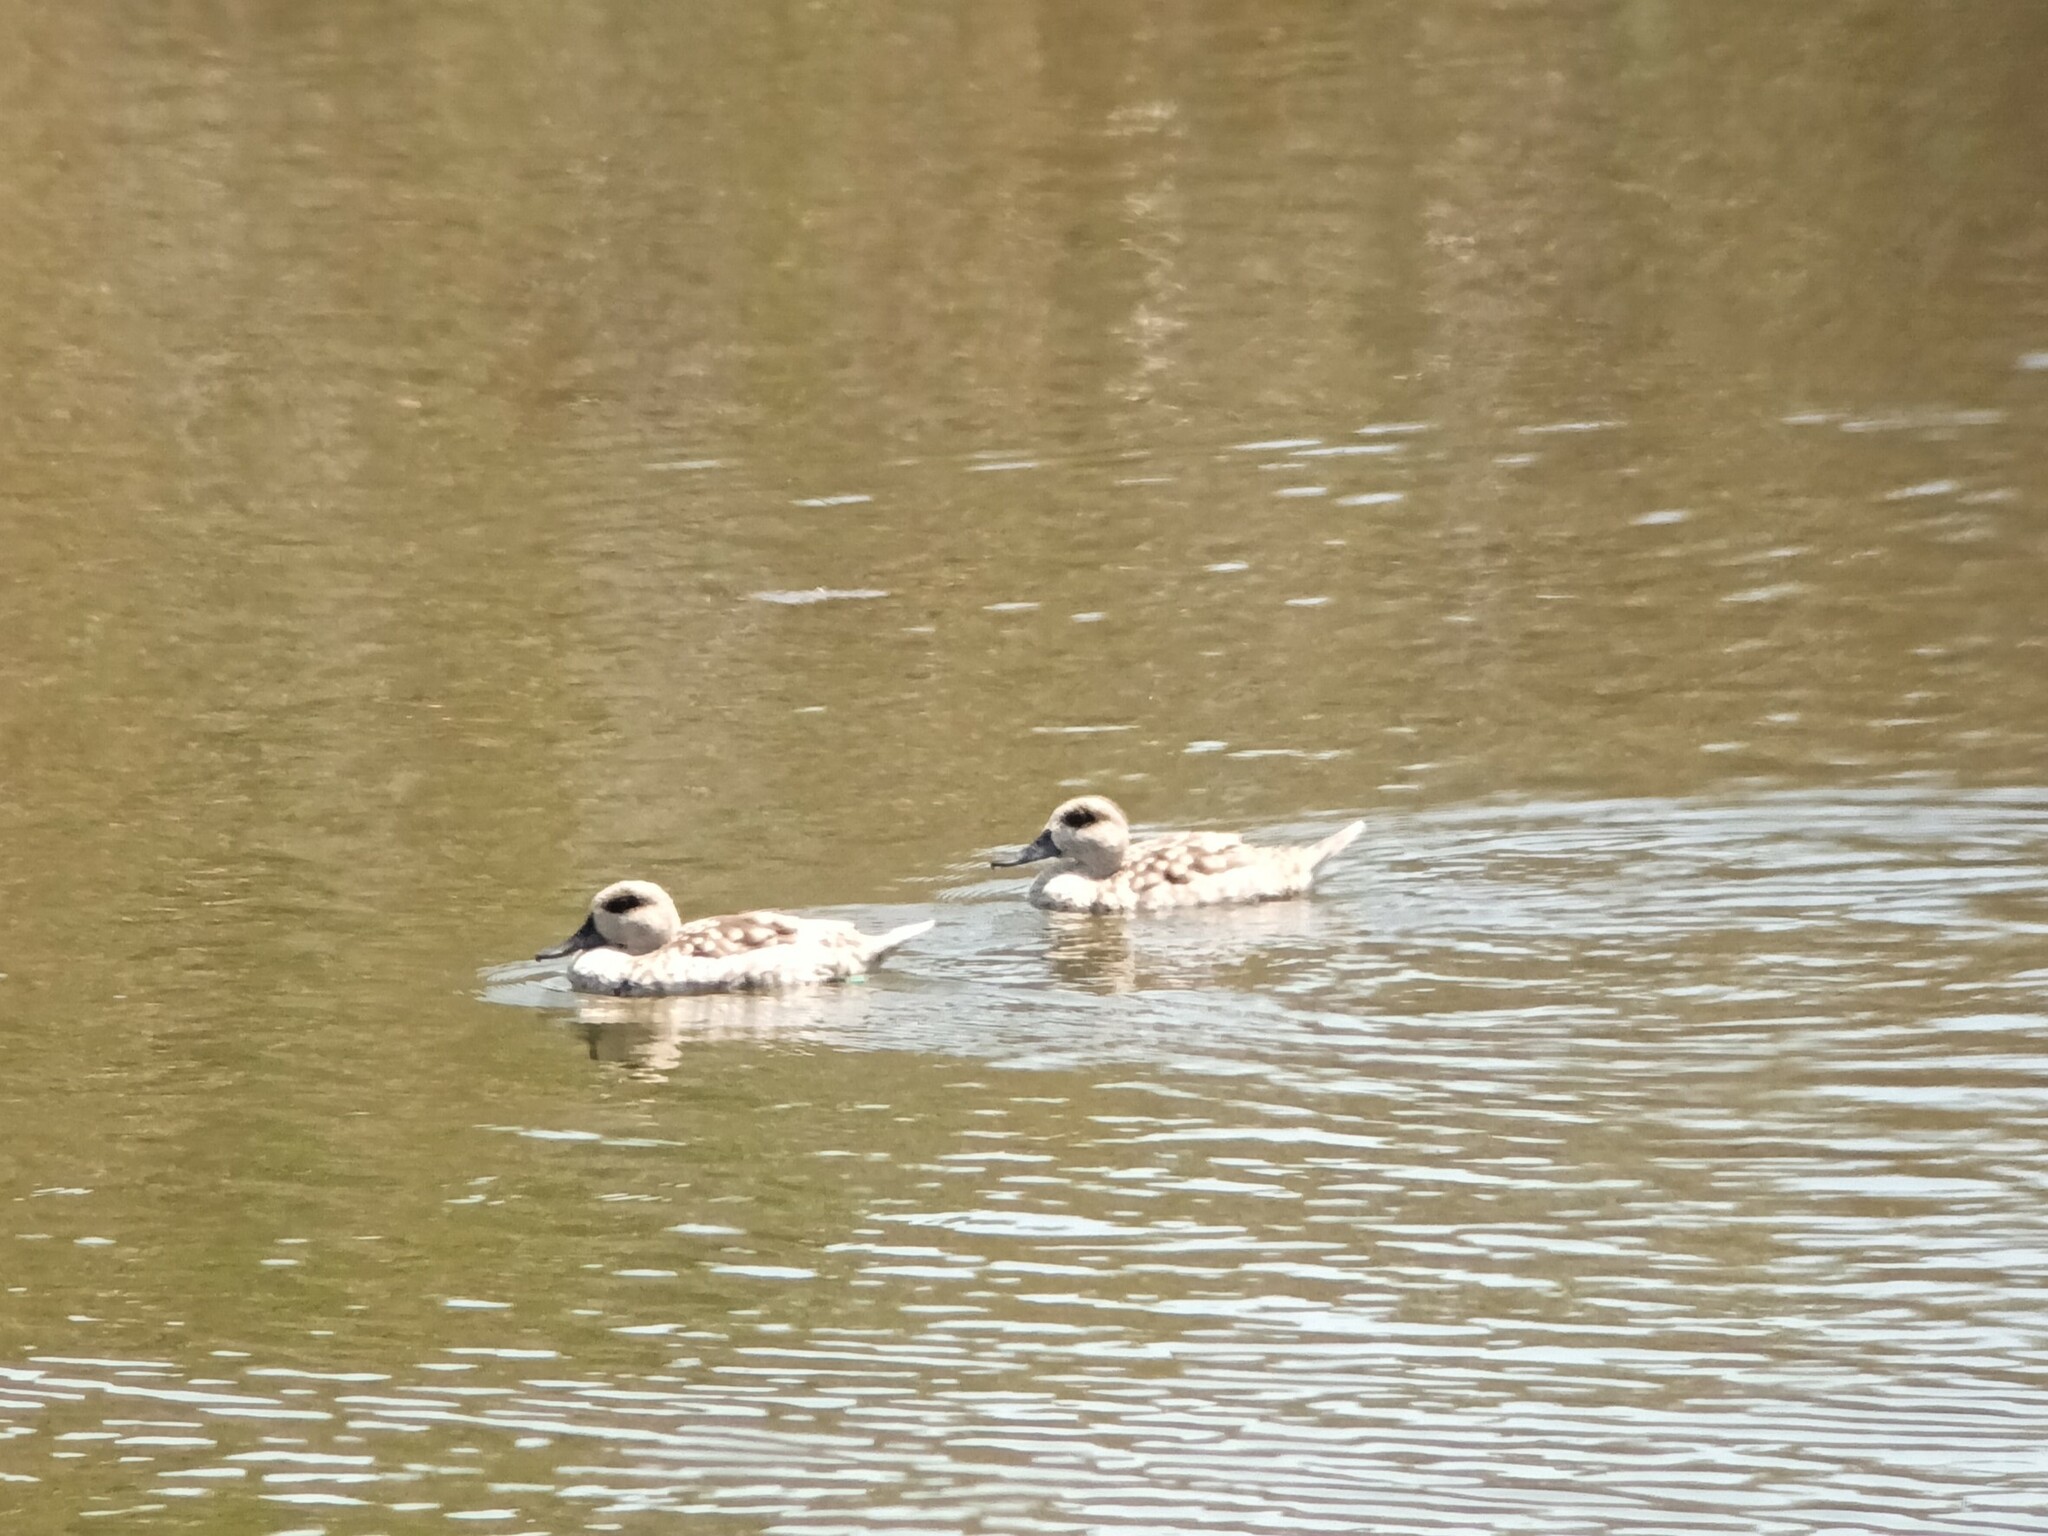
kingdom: Animalia
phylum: Chordata
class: Aves
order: Anseriformes
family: Anatidae
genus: Marmaronetta
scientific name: Marmaronetta angustirostris
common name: Marbled duck
